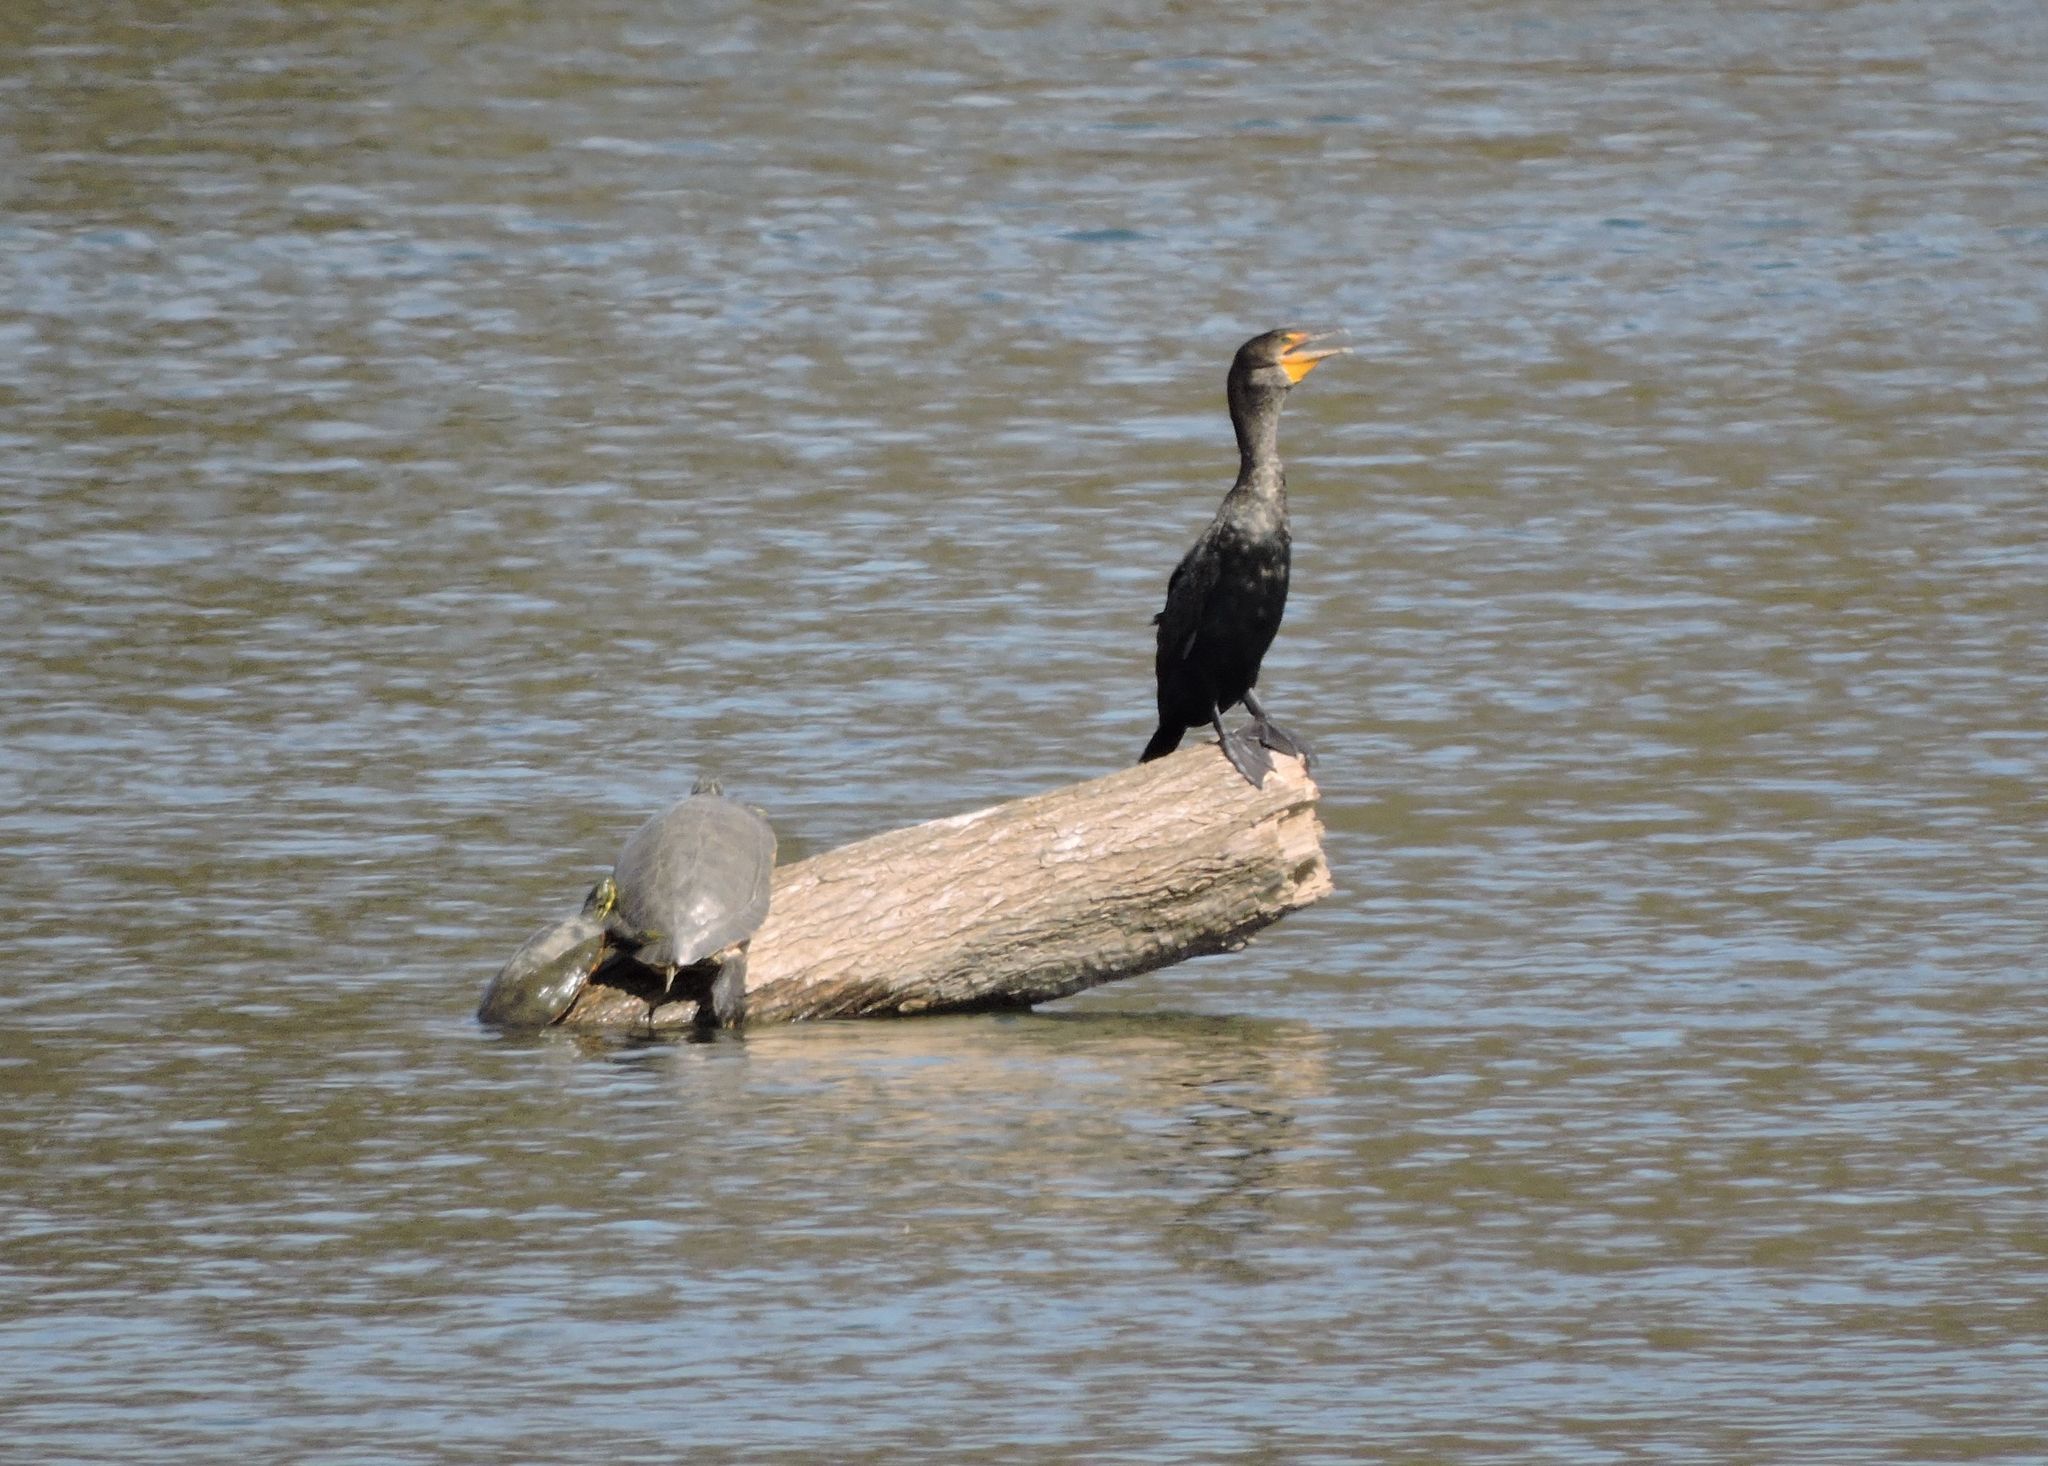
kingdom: Animalia
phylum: Chordata
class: Aves
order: Suliformes
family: Phalacrocoracidae
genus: Phalacrocorax
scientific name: Phalacrocorax auritus
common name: Double-crested cormorant
